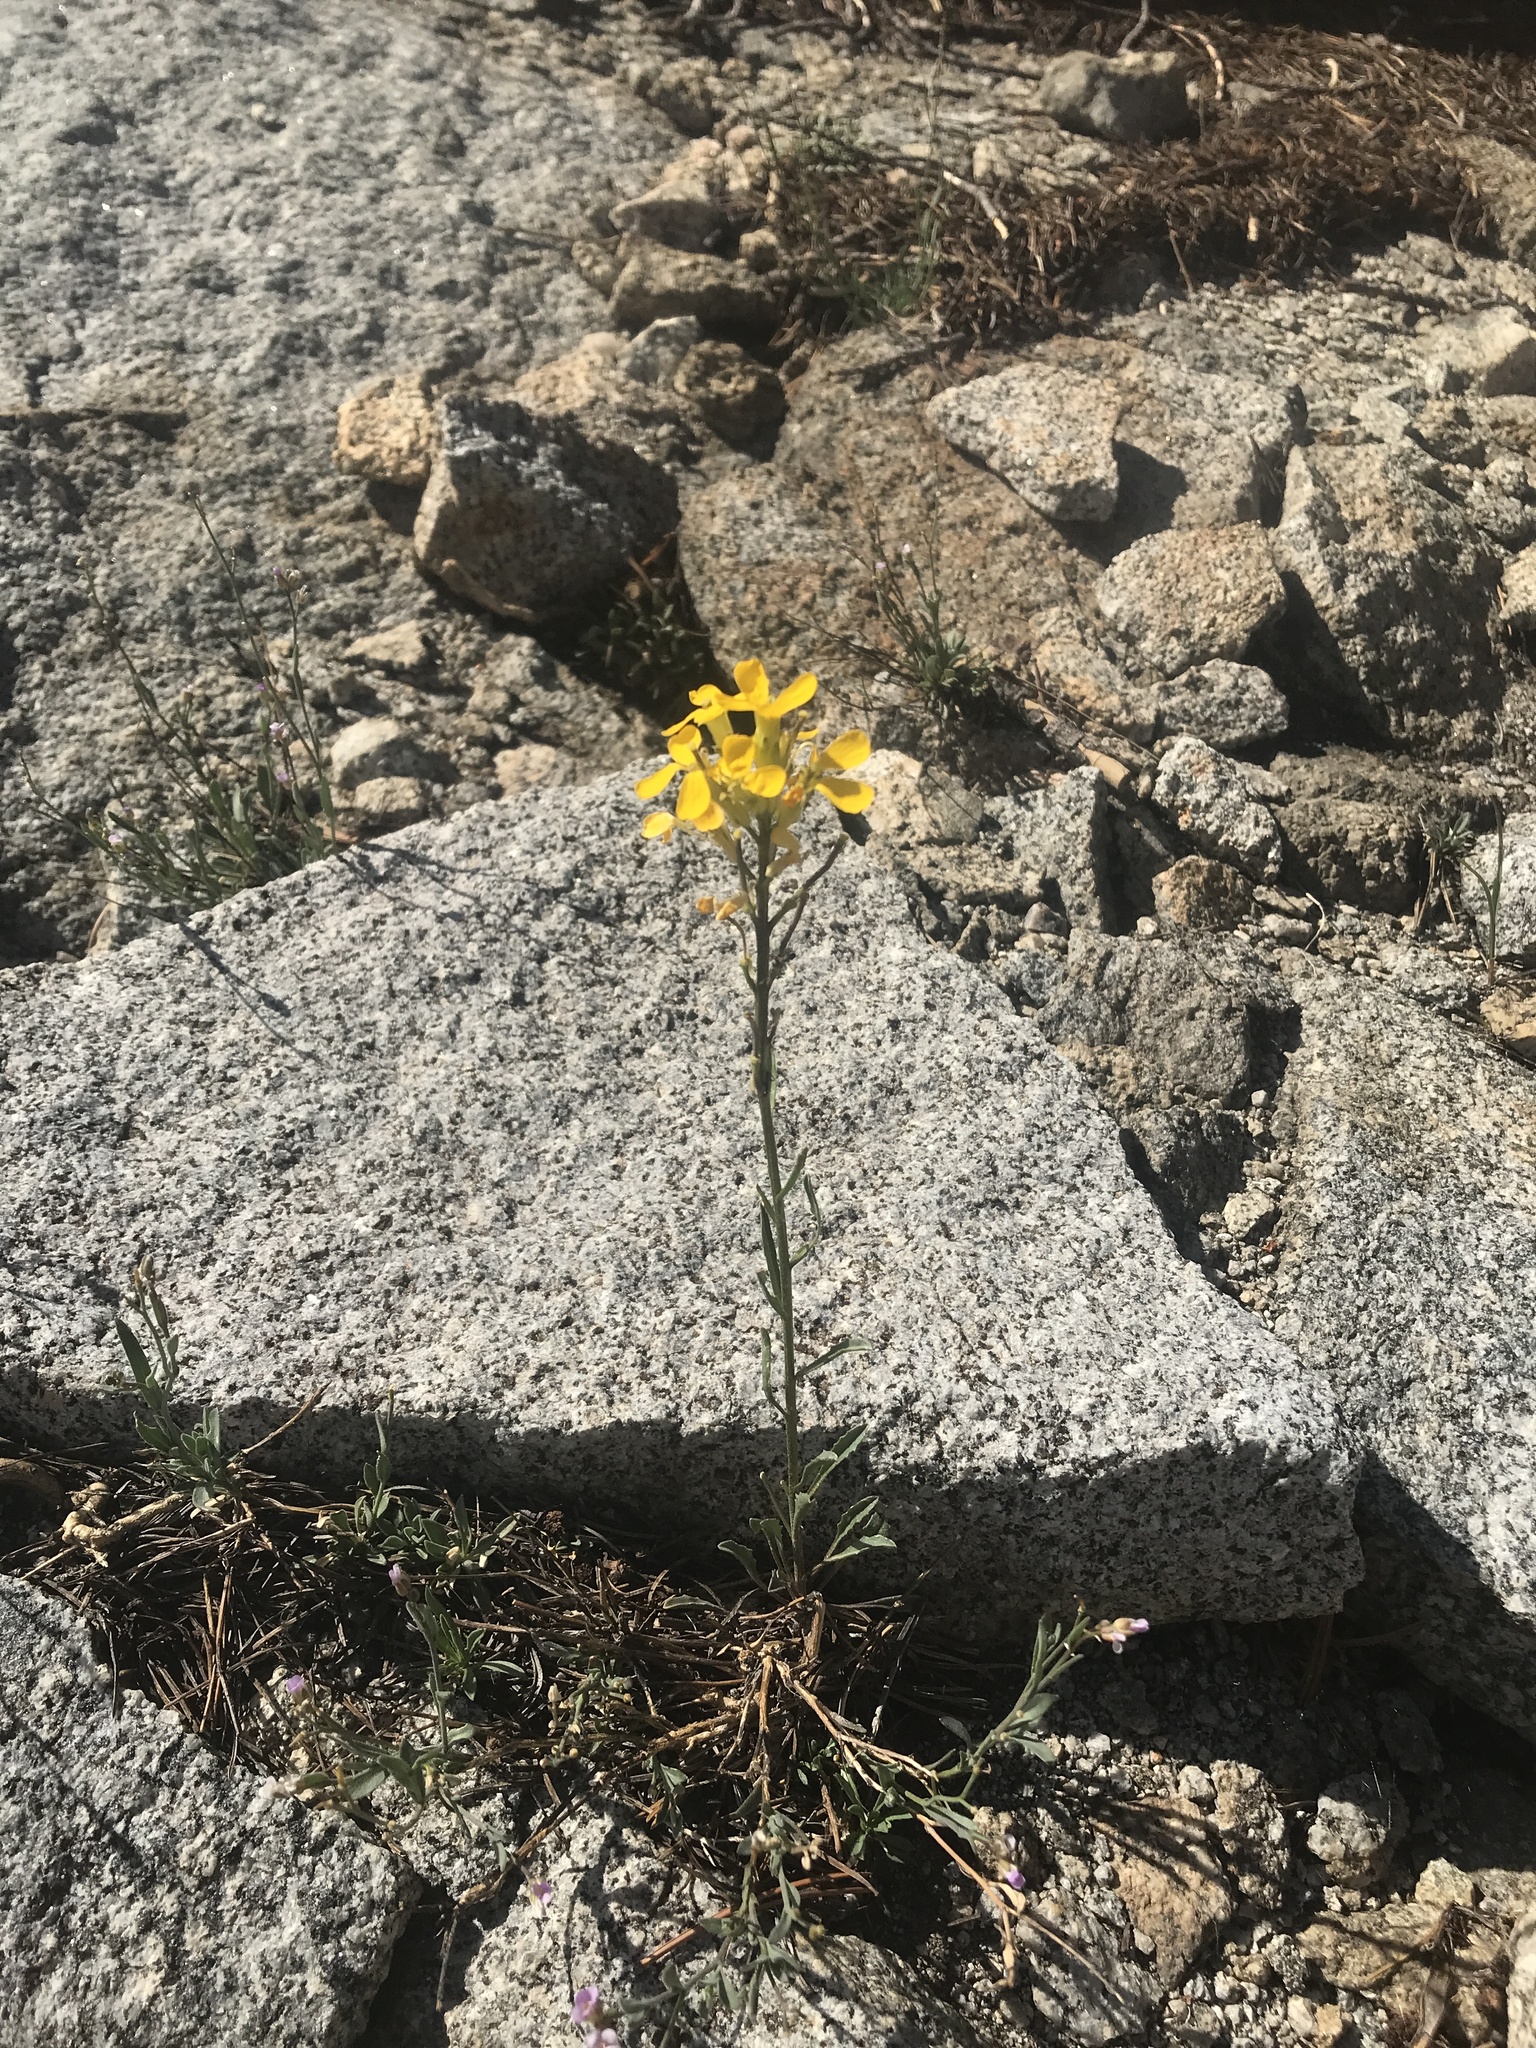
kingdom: Plantae
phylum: Tracheophyta
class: Magnoliopsida
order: Brassicales
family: Brassicaceae
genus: Erysimum
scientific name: Erysimum capitatum
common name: Western wallflower
